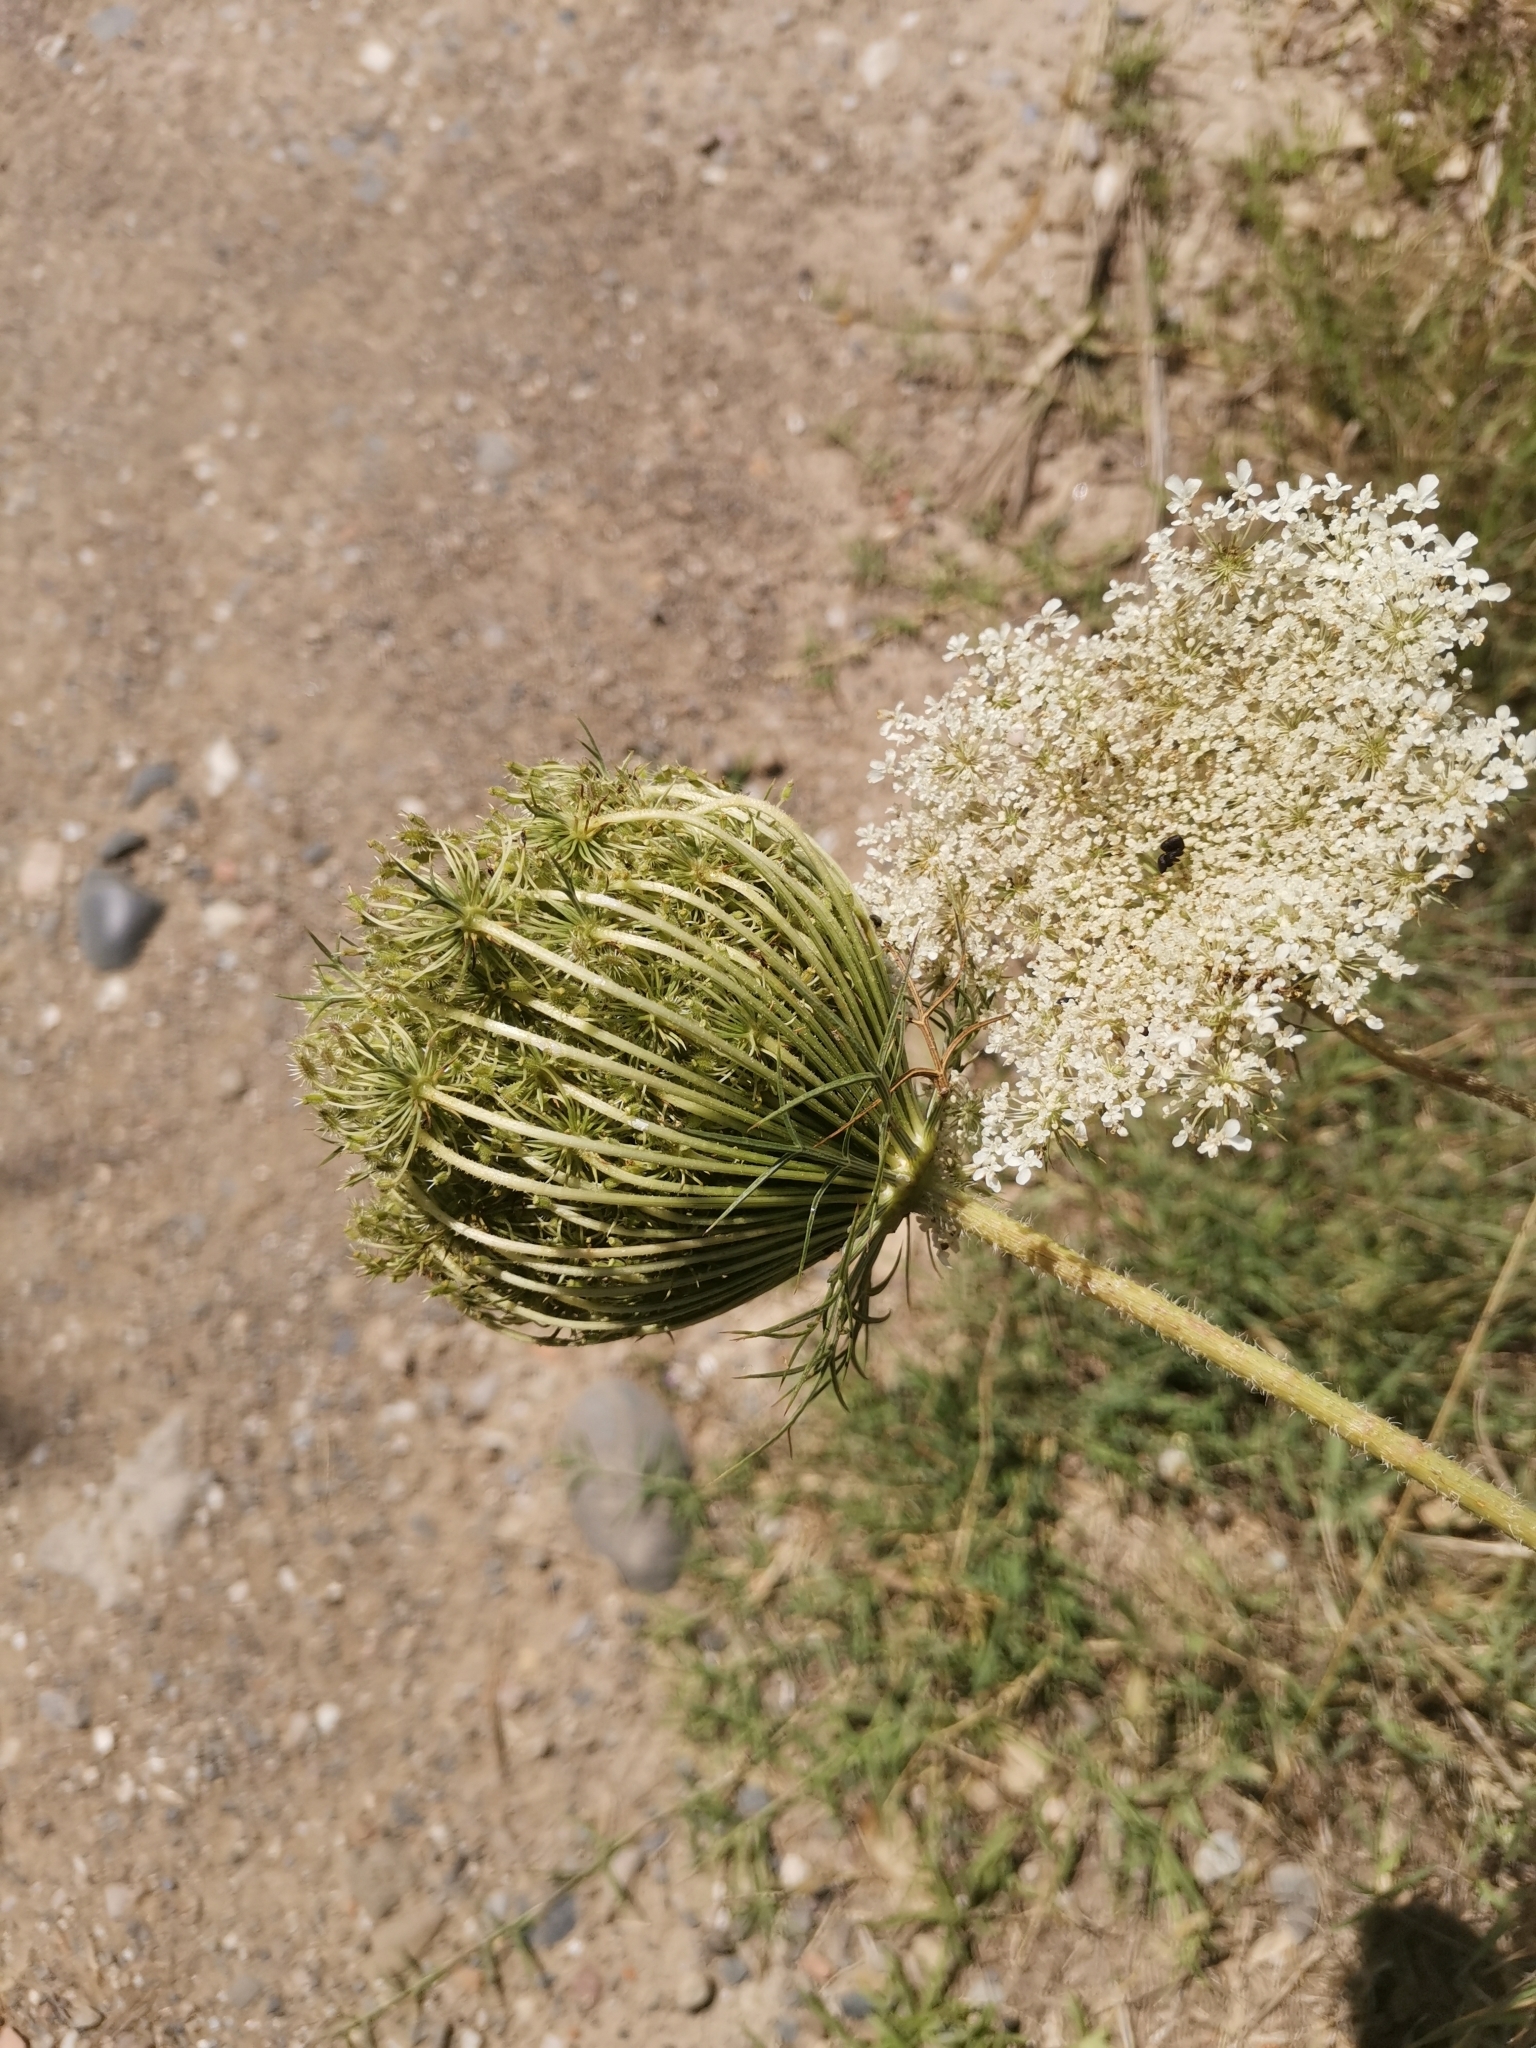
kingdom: Plantae
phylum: Tracheophyta
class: Magnoliopsida
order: Apiales
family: Apiaceae
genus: Daucus
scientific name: Daucus carota
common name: Wild carrot
